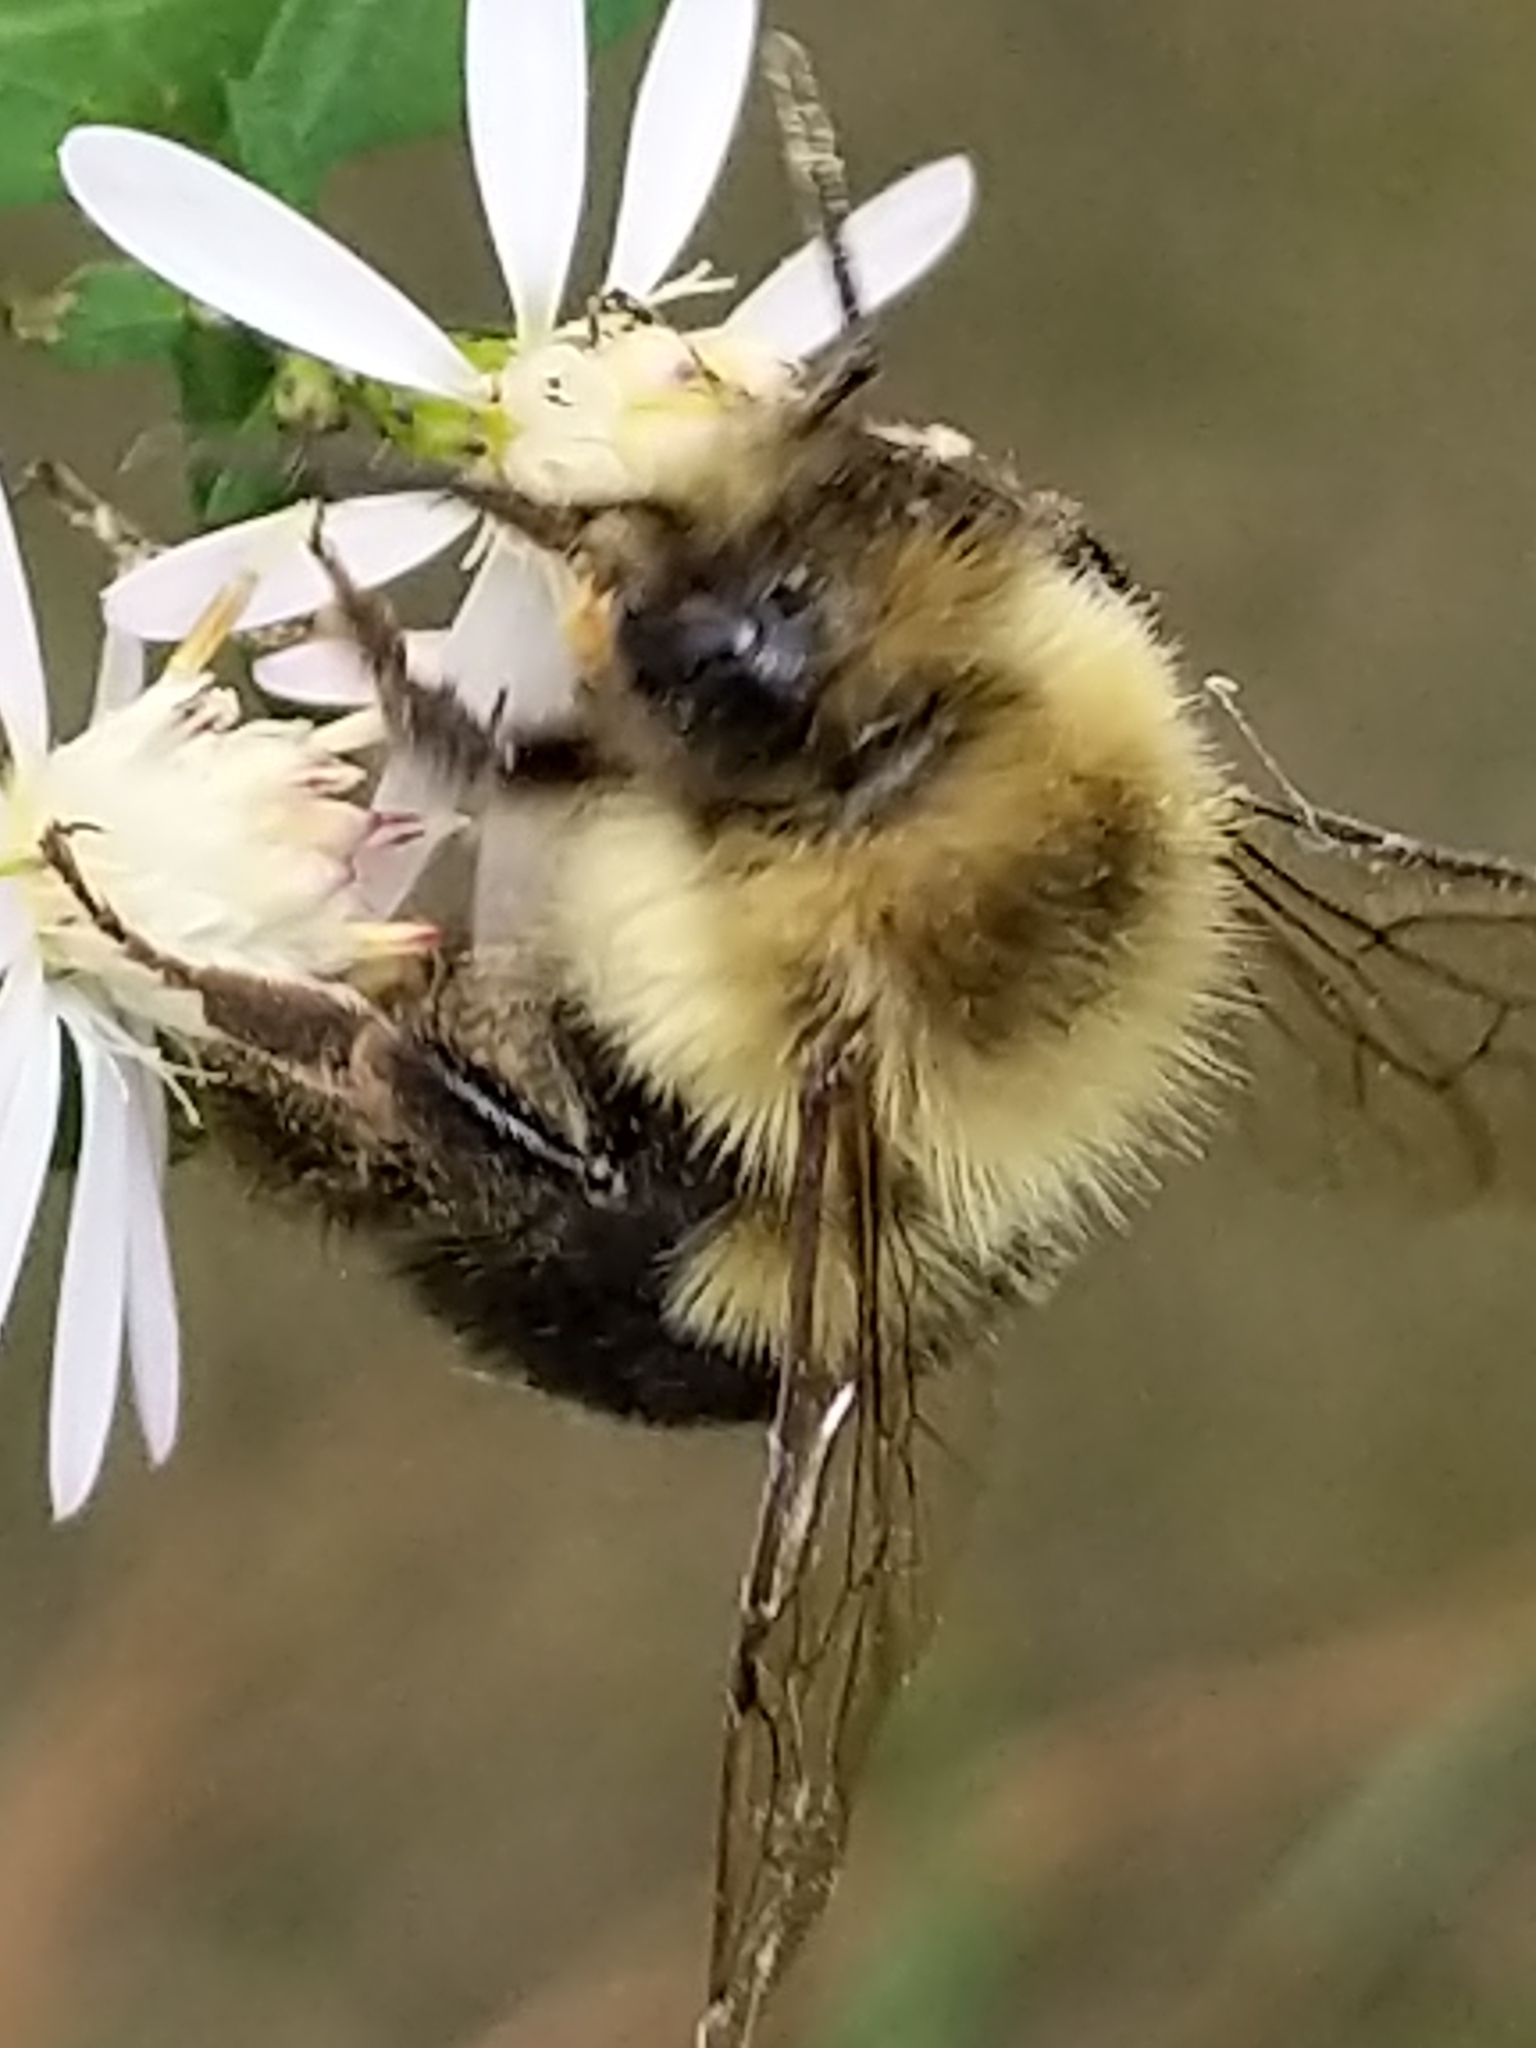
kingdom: Animalia
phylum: Arthropoda
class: Insecta
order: Hymenoptera
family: Apidae
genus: Bombus
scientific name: Bombus impatiens
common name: Common eastern bumble bee
